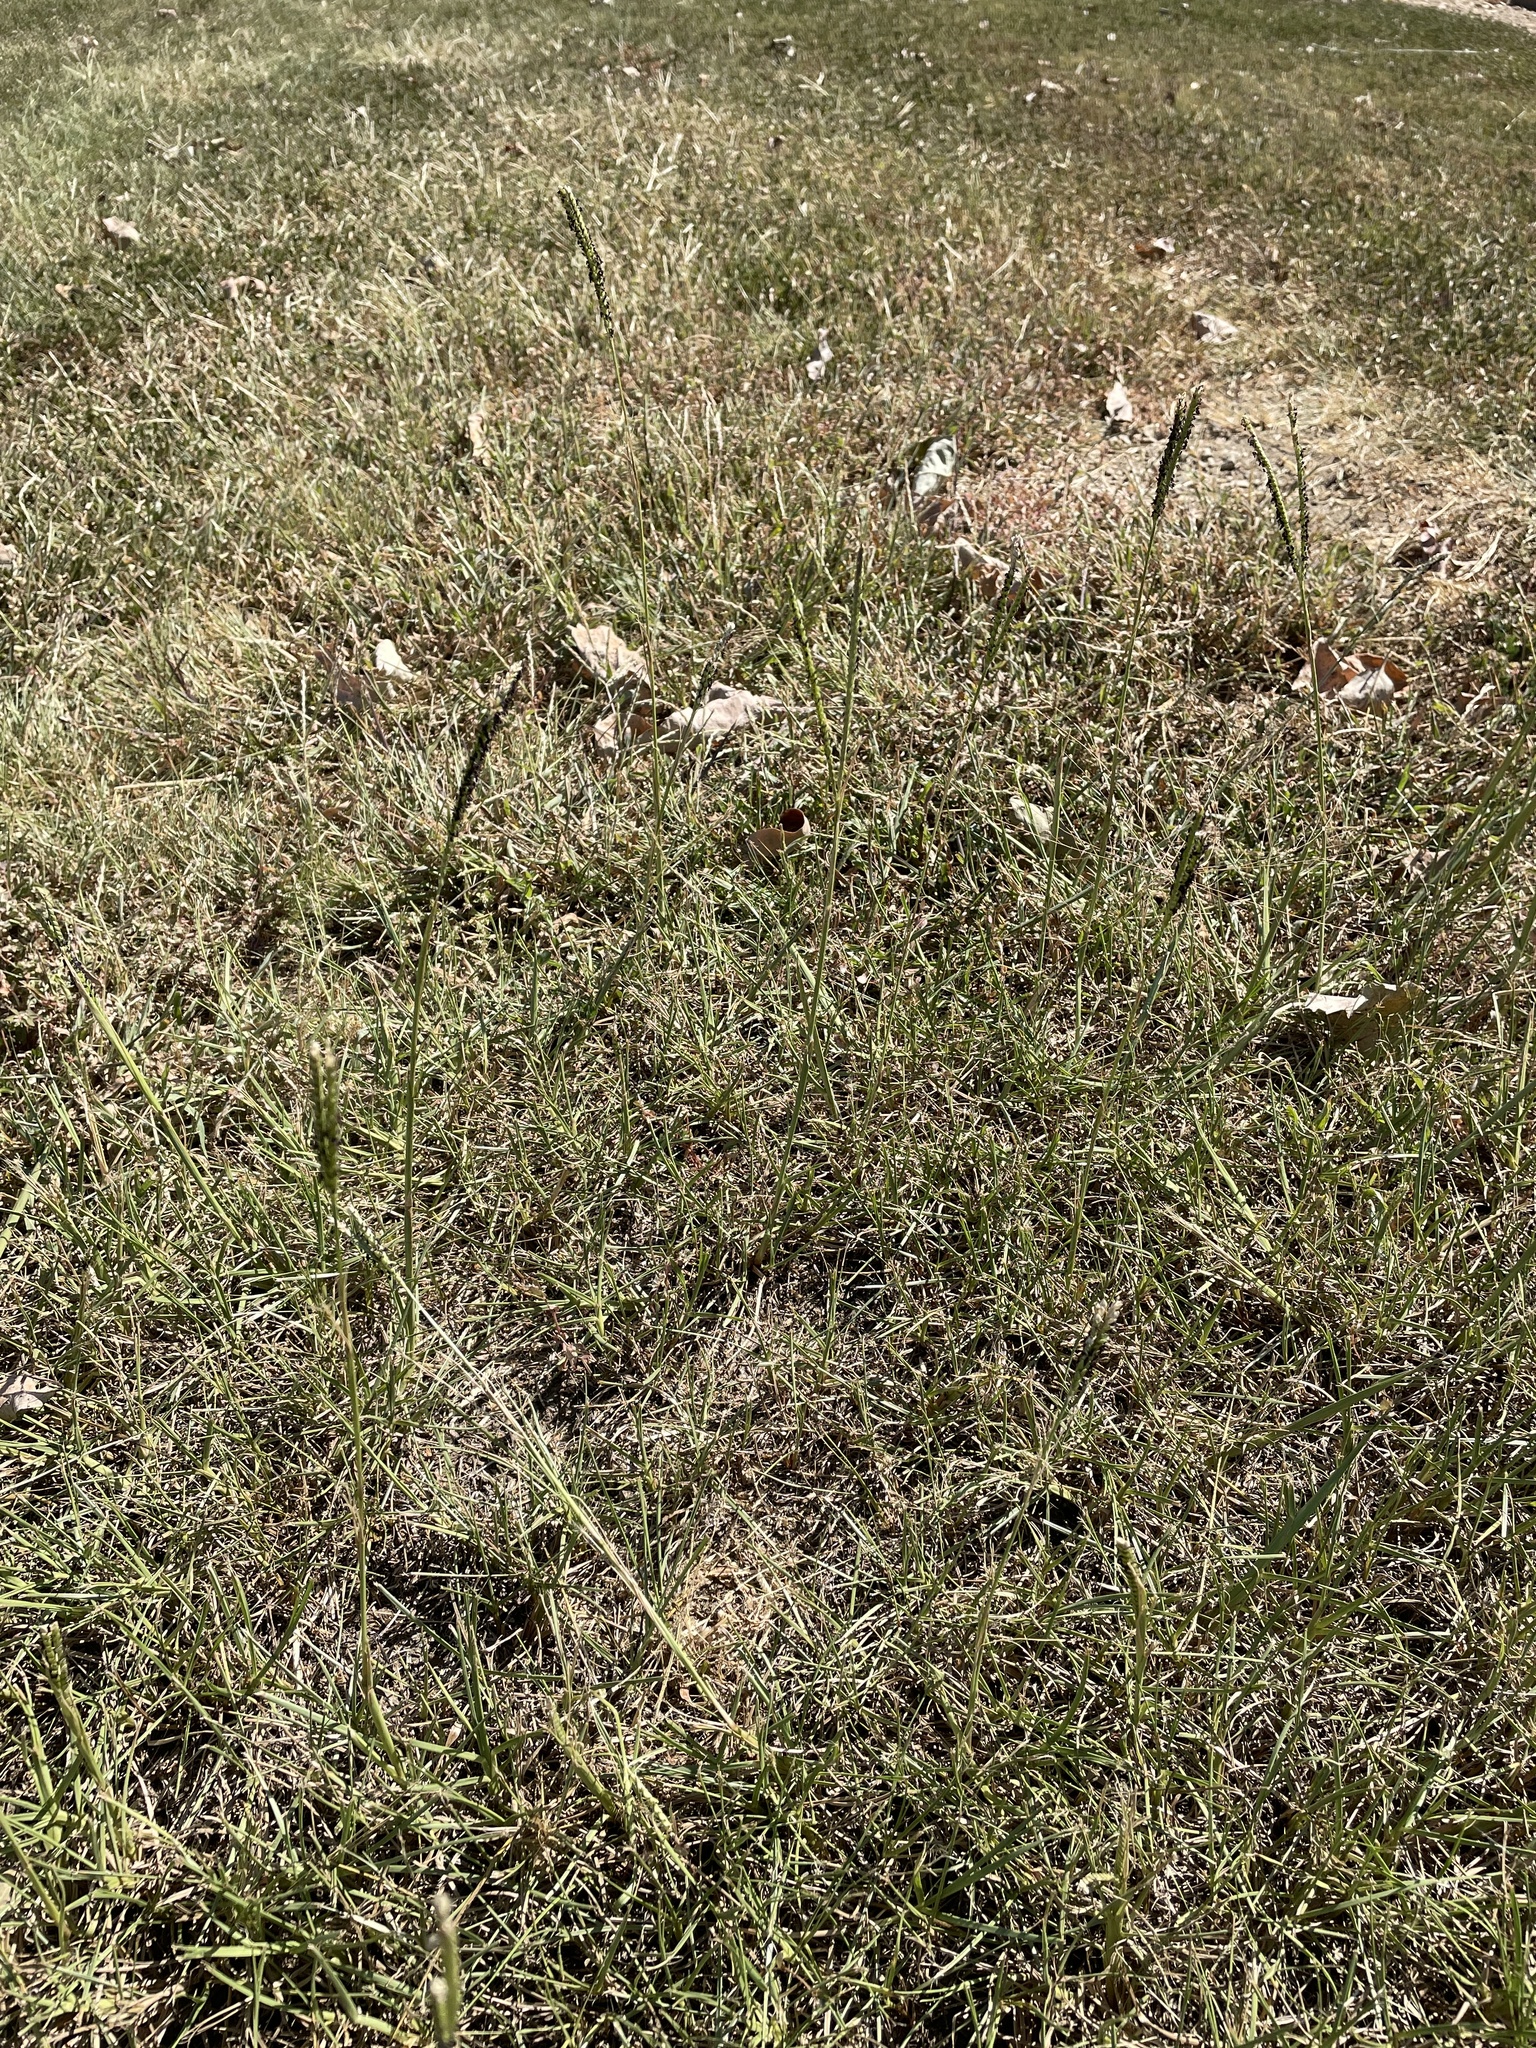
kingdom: Plantae
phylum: Tracheophyta
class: Liliopsida
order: Poales
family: Poaceae
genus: Paspalum
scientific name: Paspalum notatum
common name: Bahiagrass
